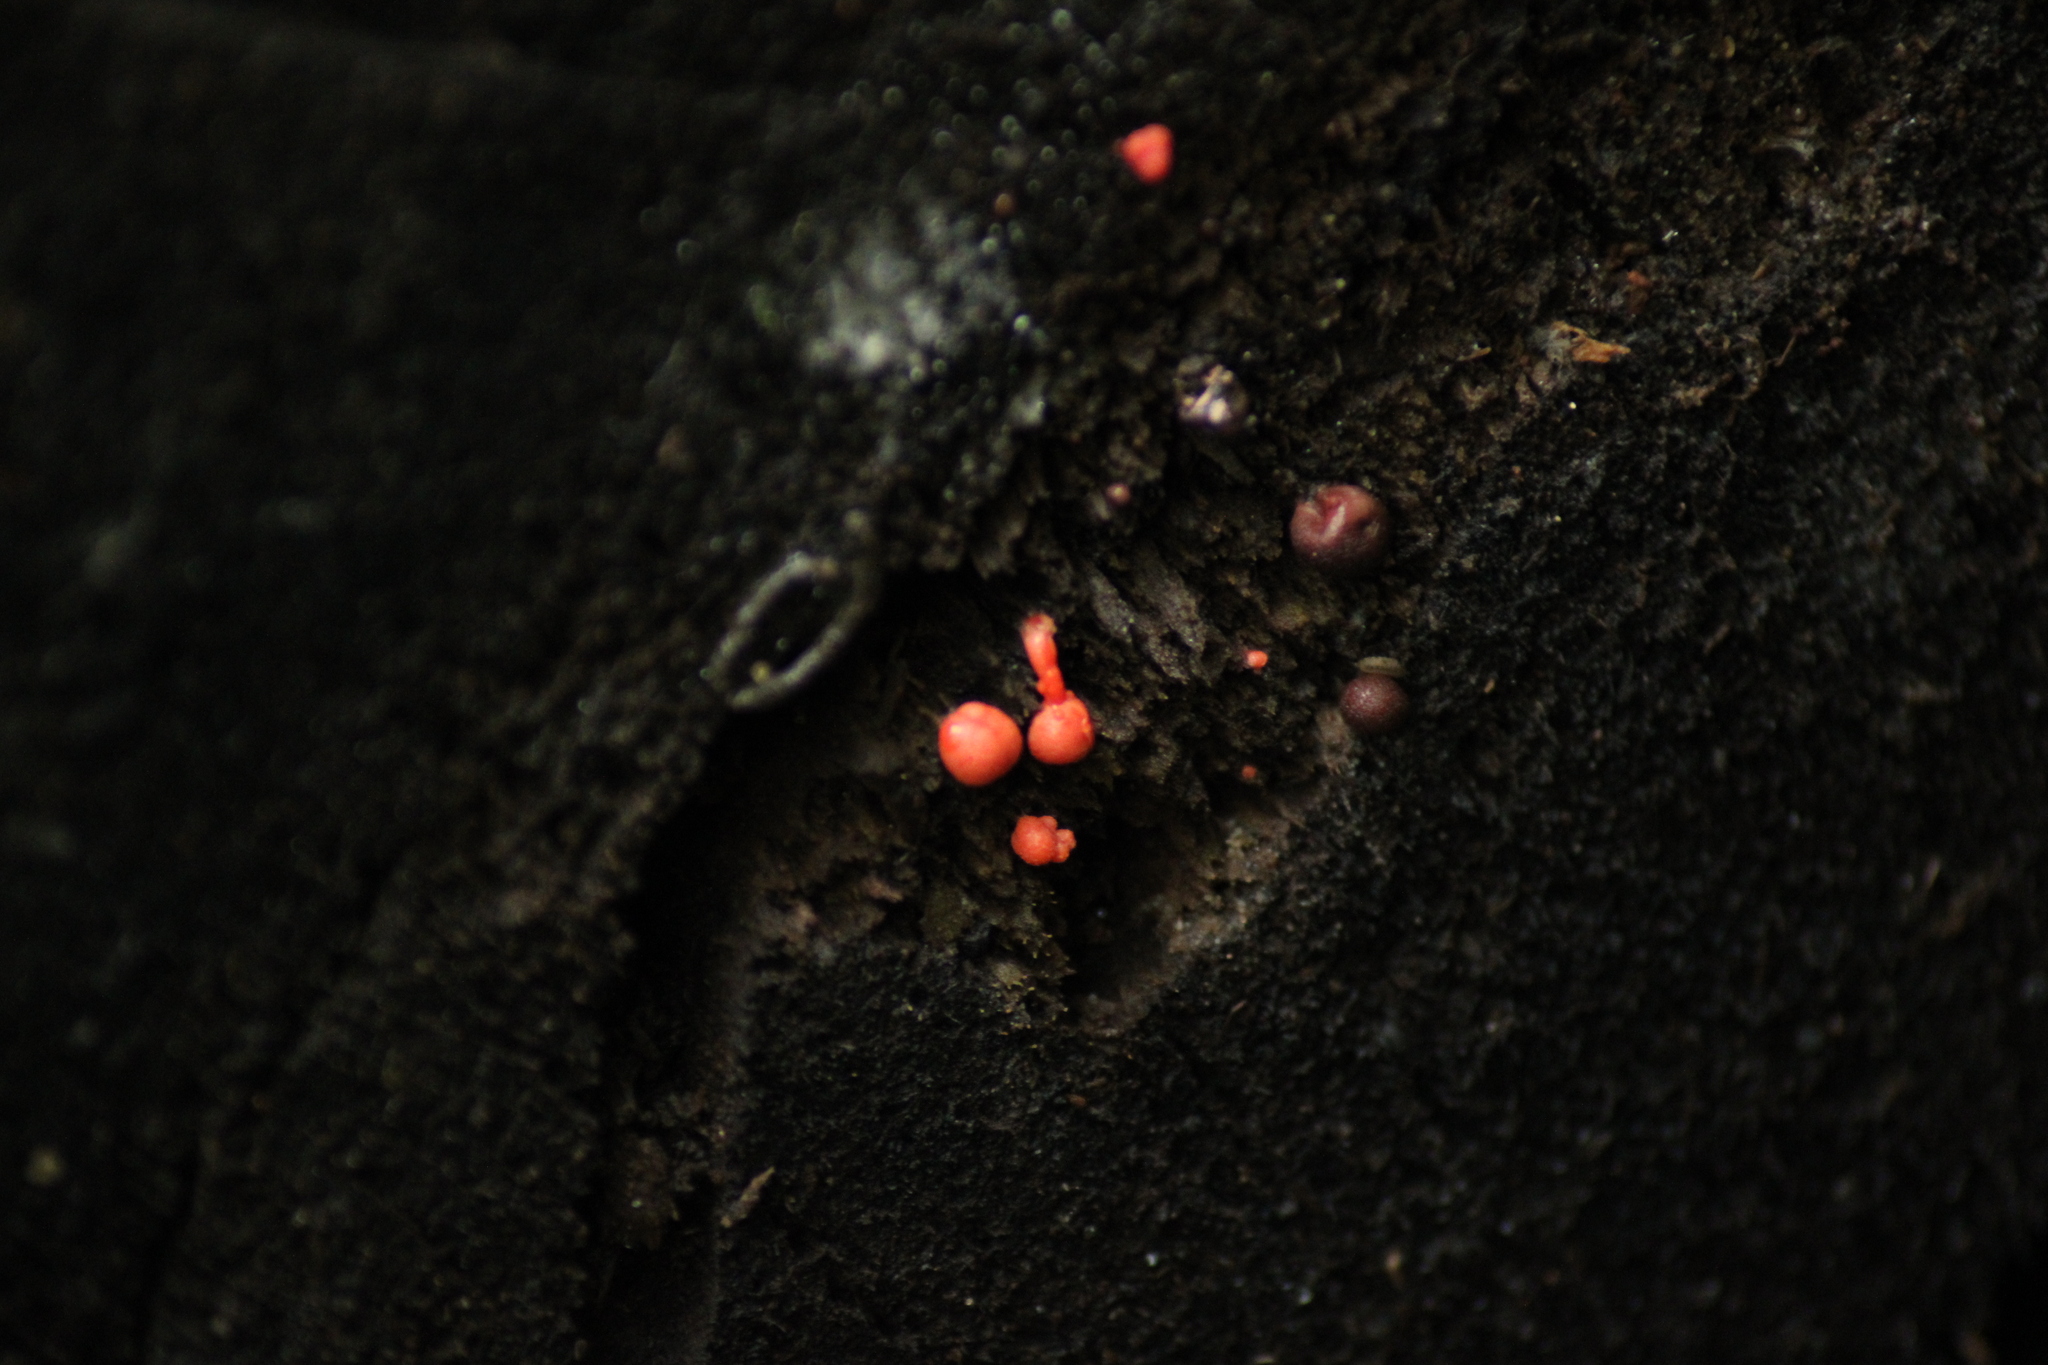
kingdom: Protozoa
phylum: Mycetozoa
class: Myxomycetes
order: Cribrariales
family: Tubiferaceae
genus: Lycogala
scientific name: Lycogala epidendrum
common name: Wolf's milk
